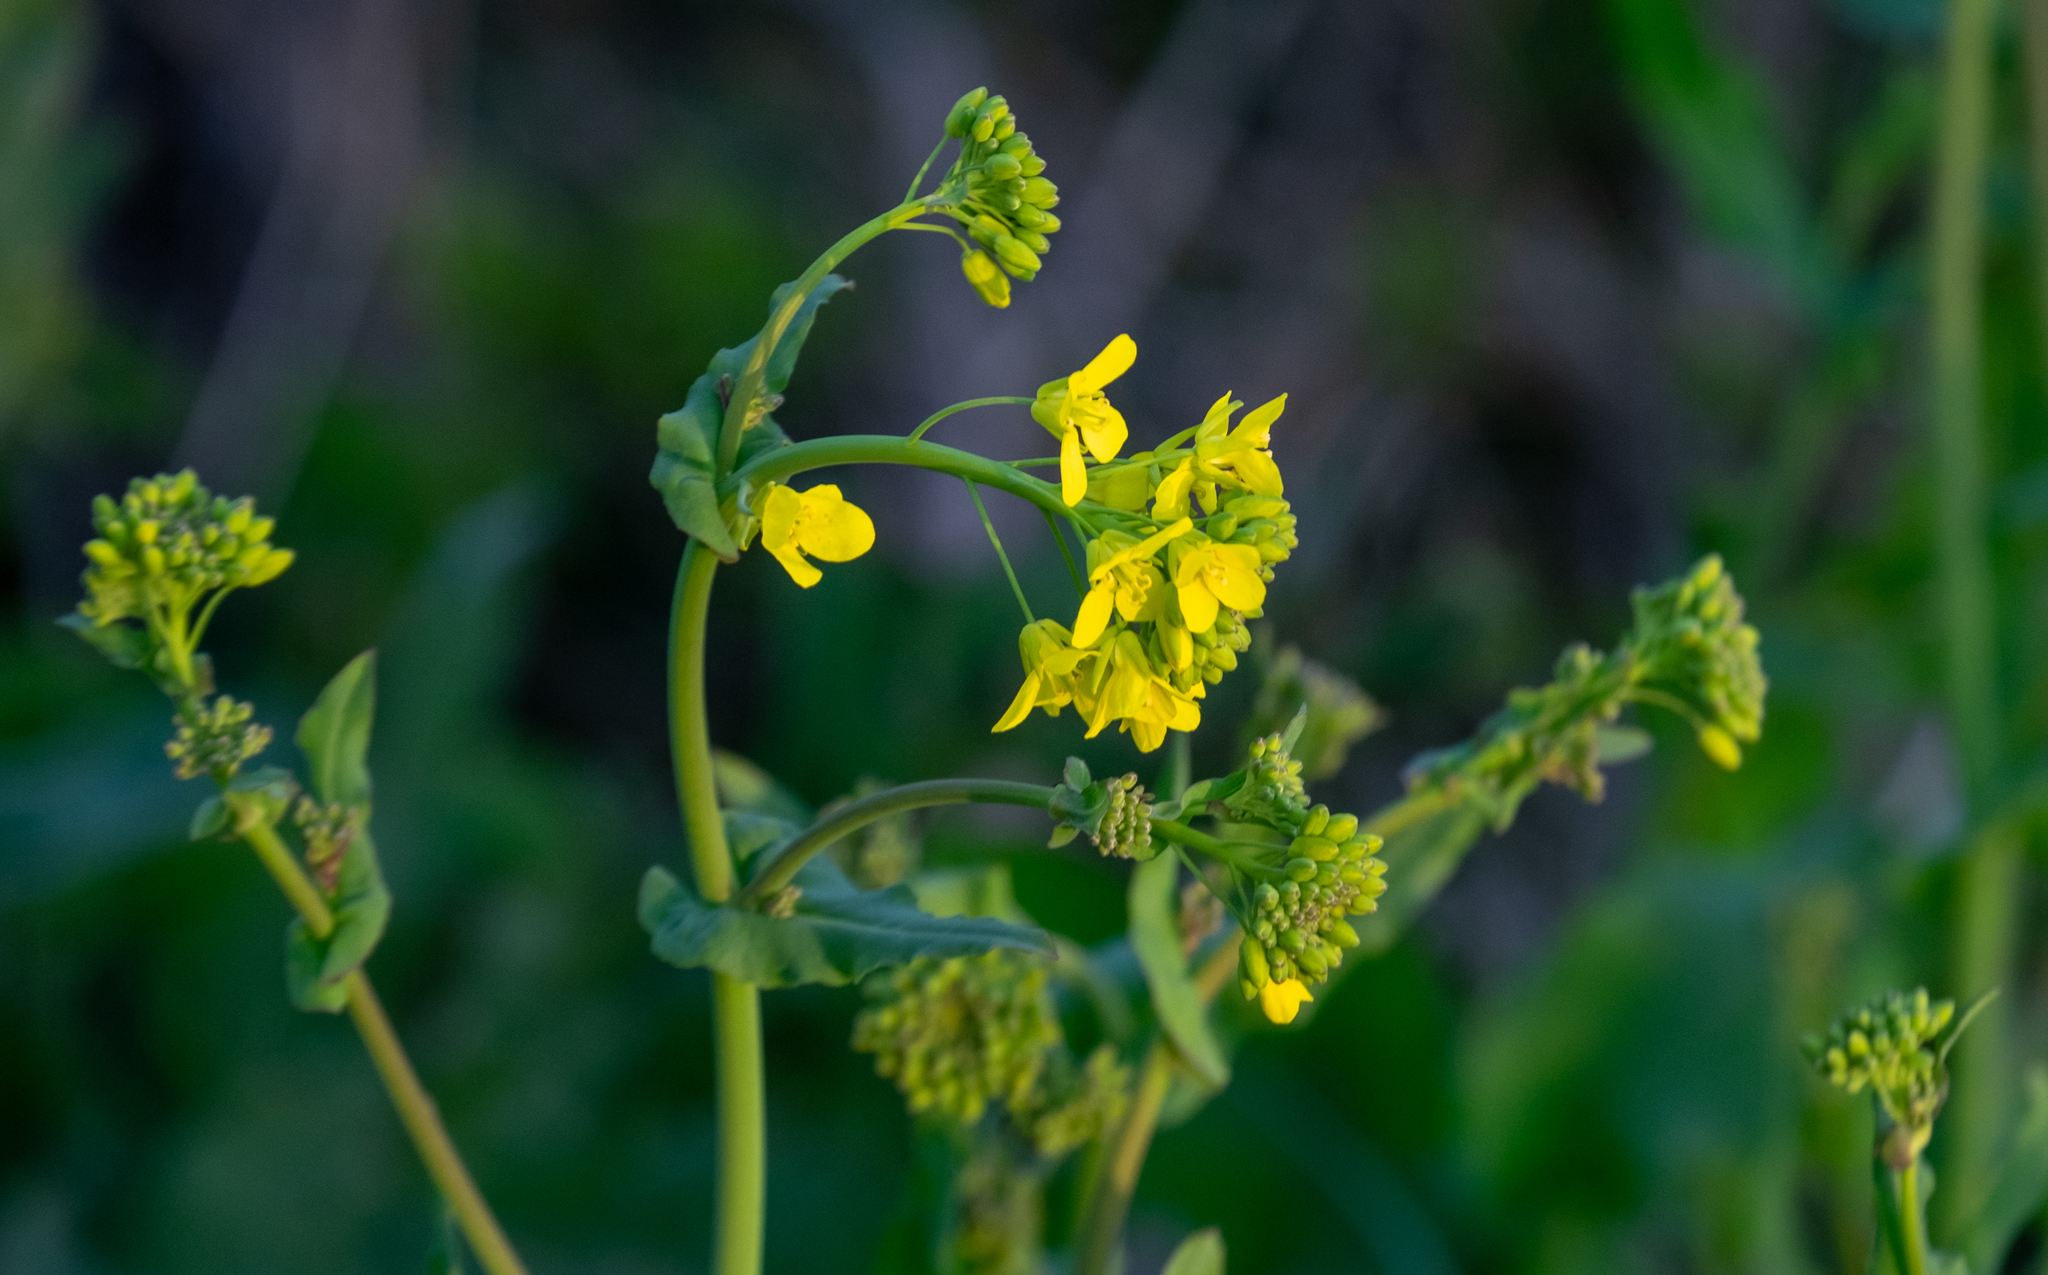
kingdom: Plantae
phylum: Tracheophyta
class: Magnoliopsida
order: Brassicales
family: Brassicaceae
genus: Brassica
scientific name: Brassica rapa
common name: Field mustard
